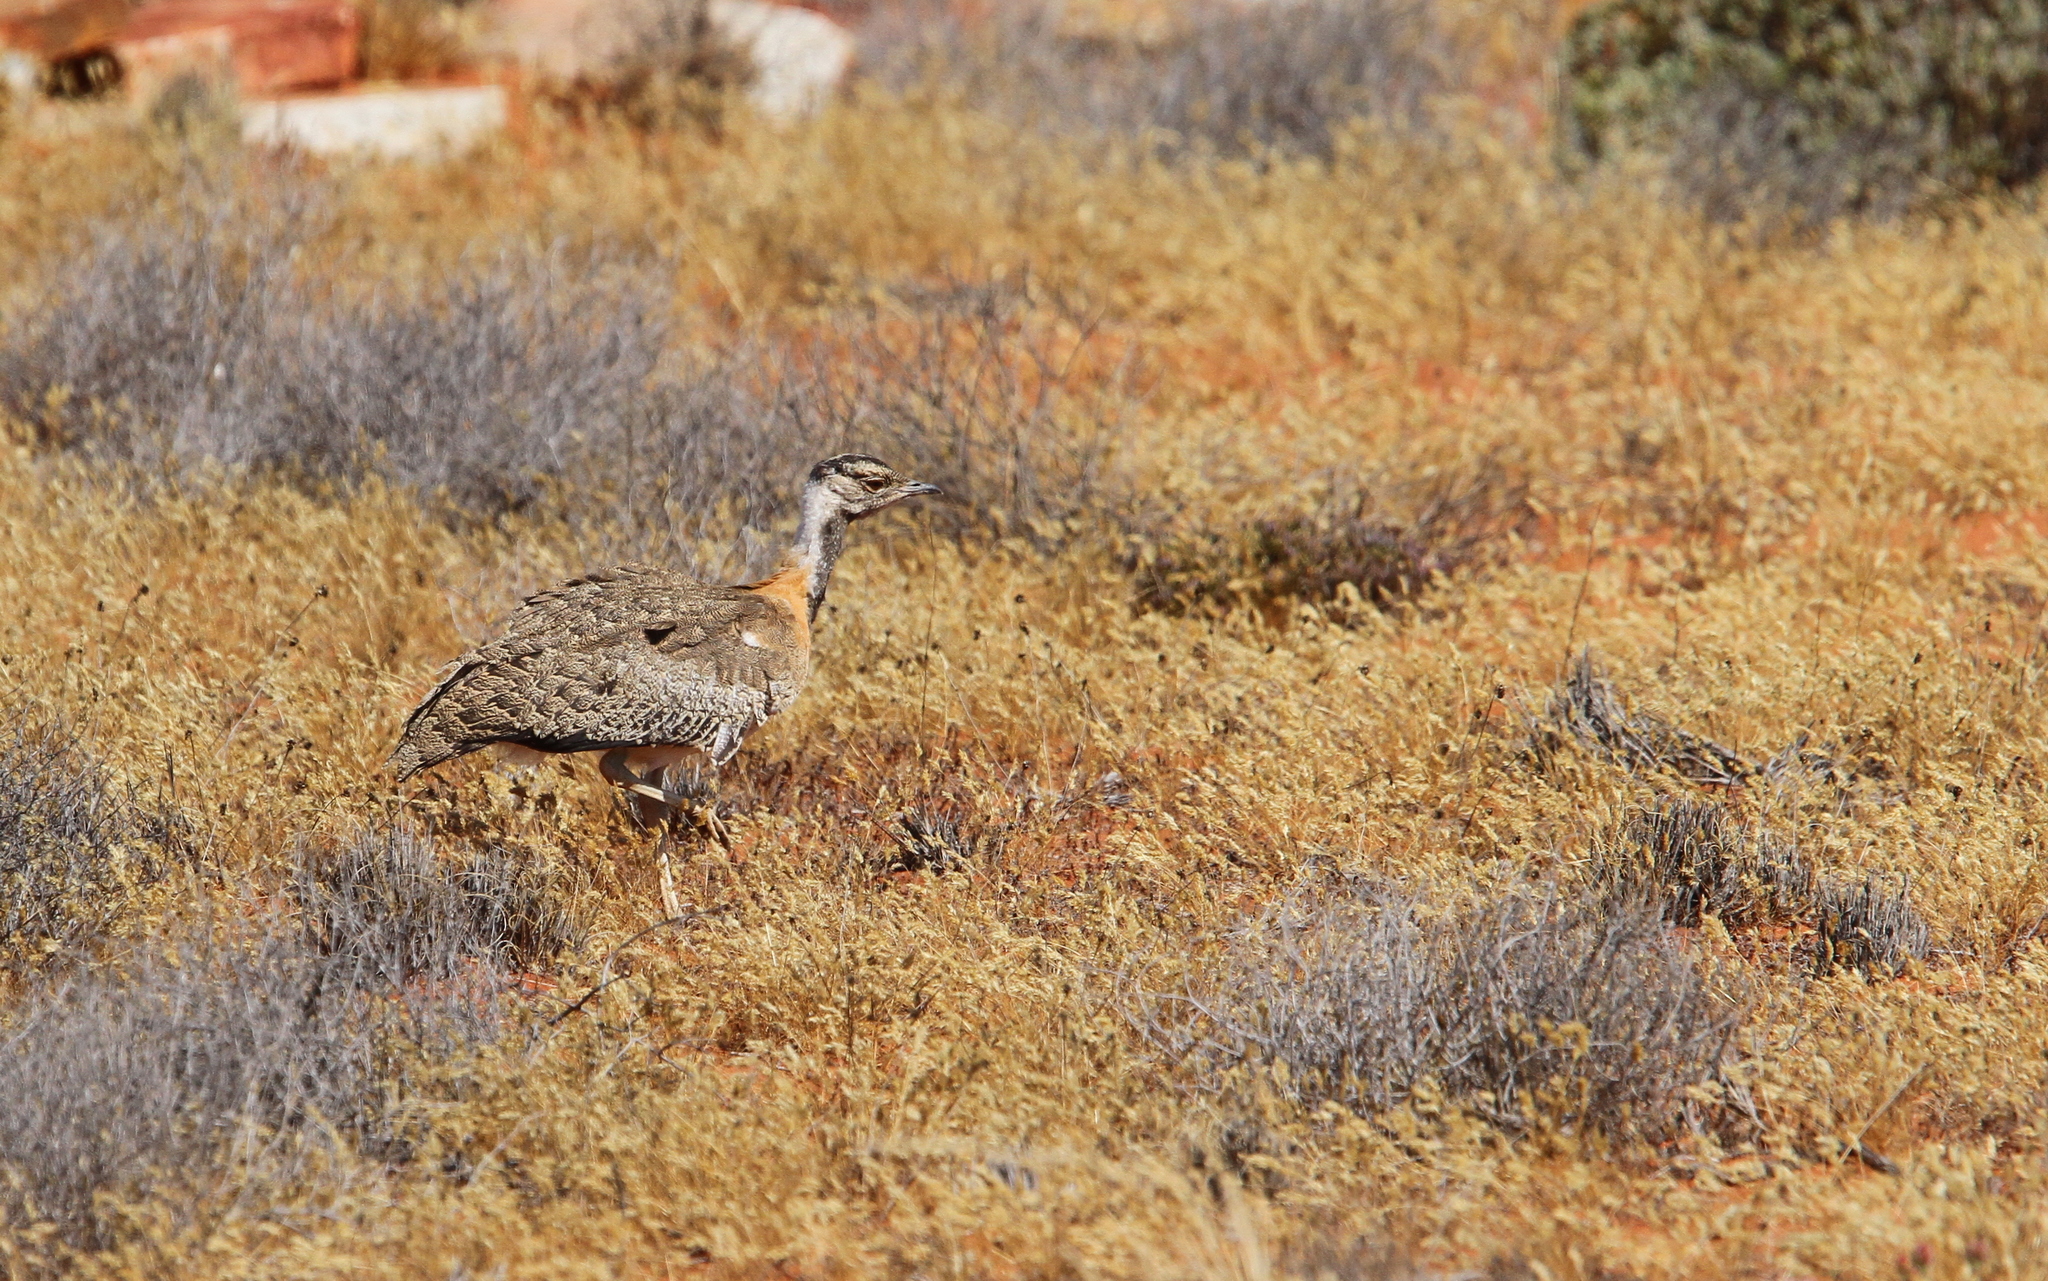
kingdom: Animalia
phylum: Chordata
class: Aves
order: Otidiformes
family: Otididae
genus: Neotis
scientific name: Neotis ludwigii
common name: Ludwig's bustard
